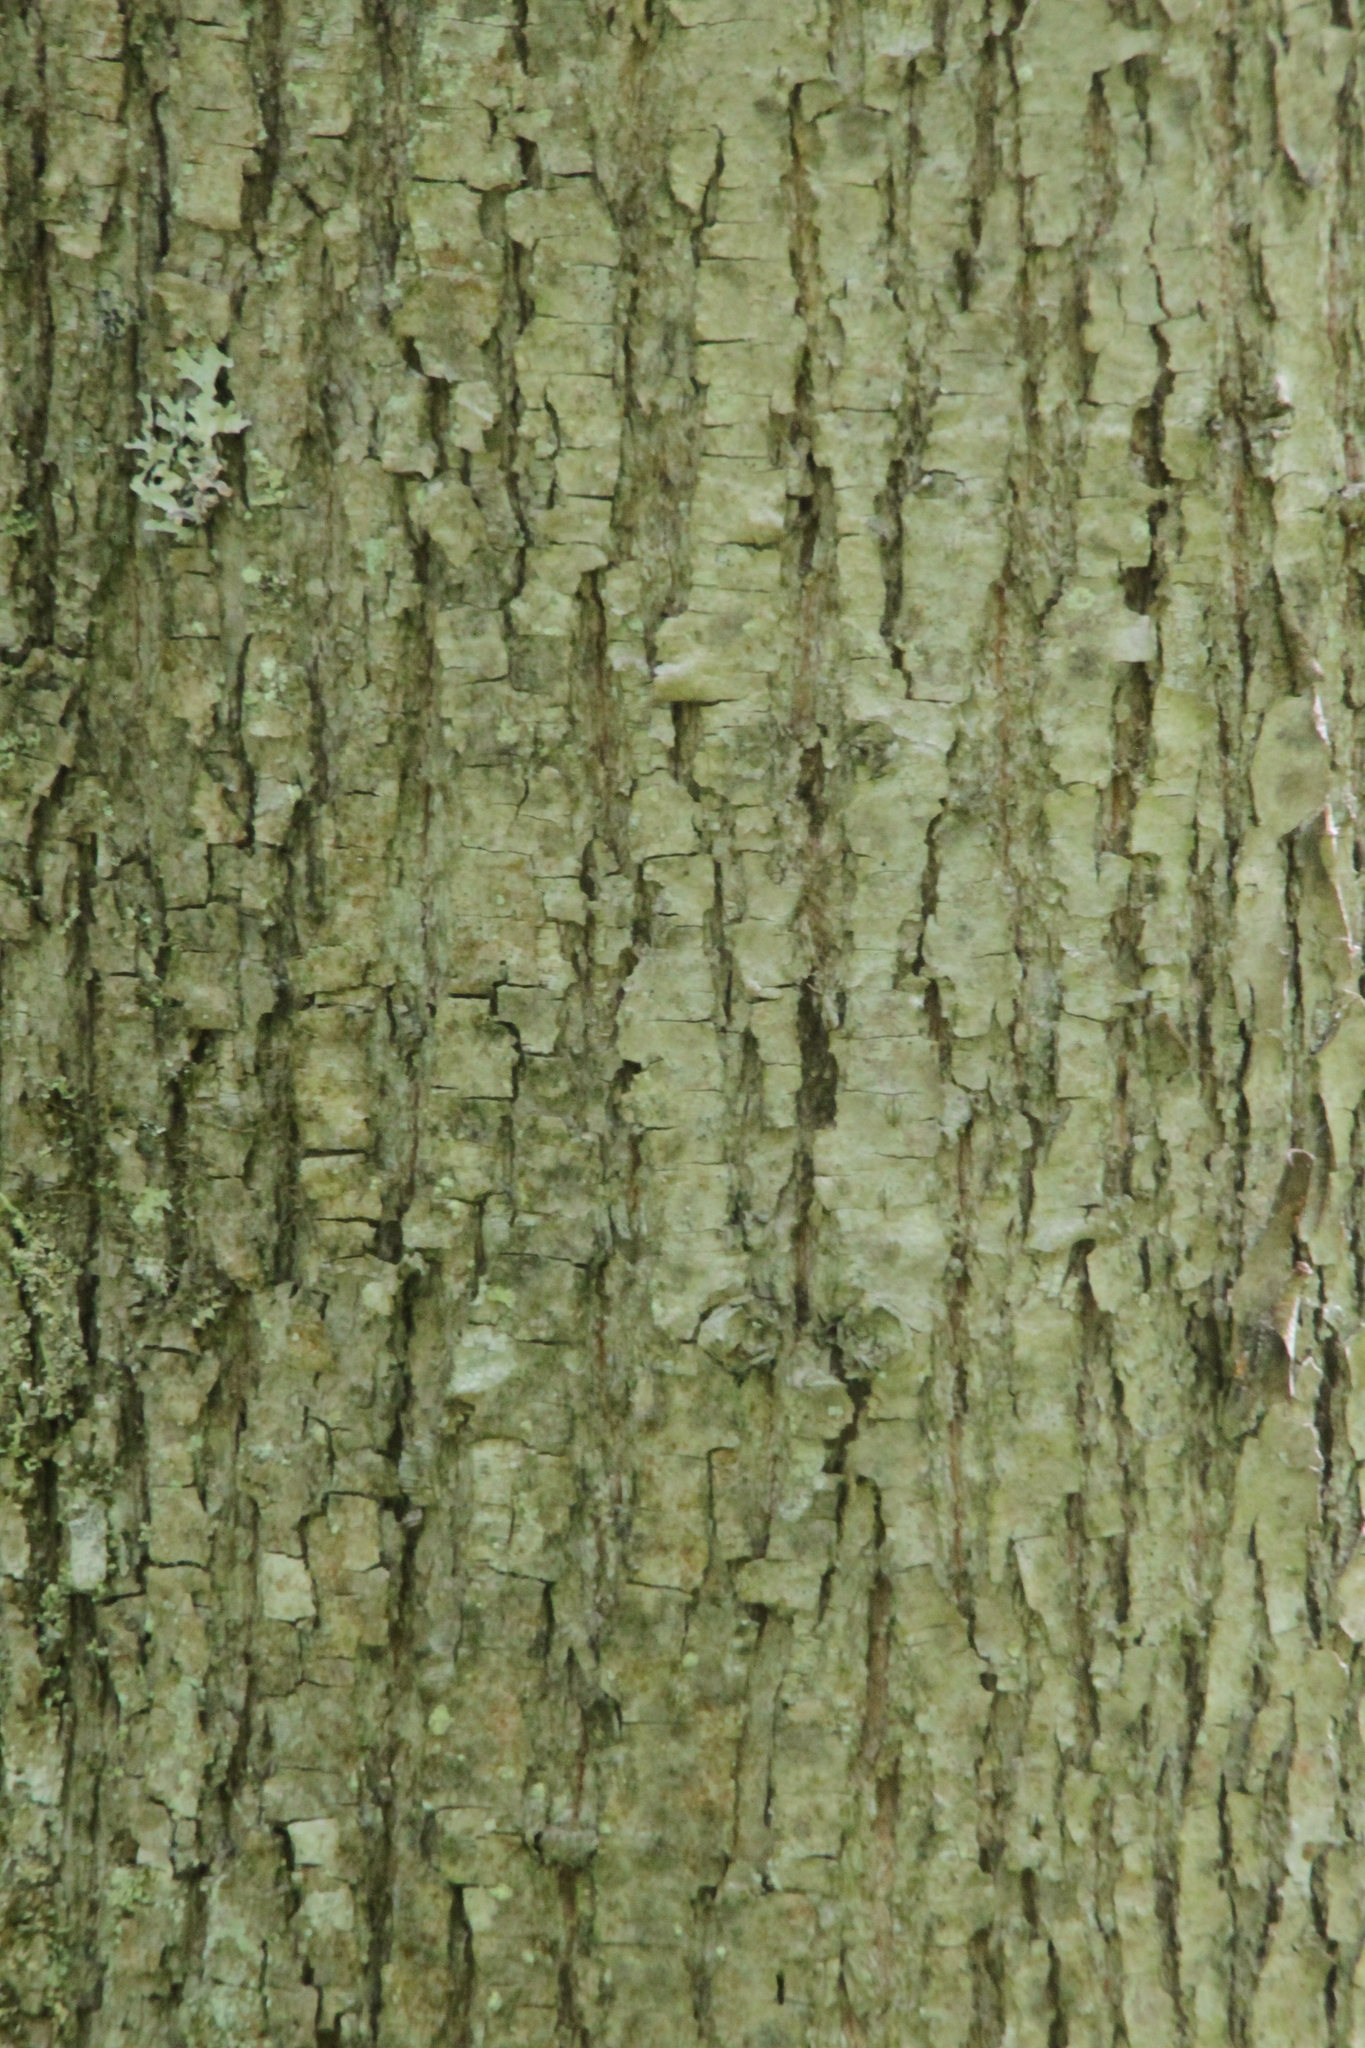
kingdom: Plantae
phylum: Tracheophyta
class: Magnoliopsida
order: Malvales
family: Malvaceae
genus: Tilia
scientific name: Tilia cordata
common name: Small-leaved lime
